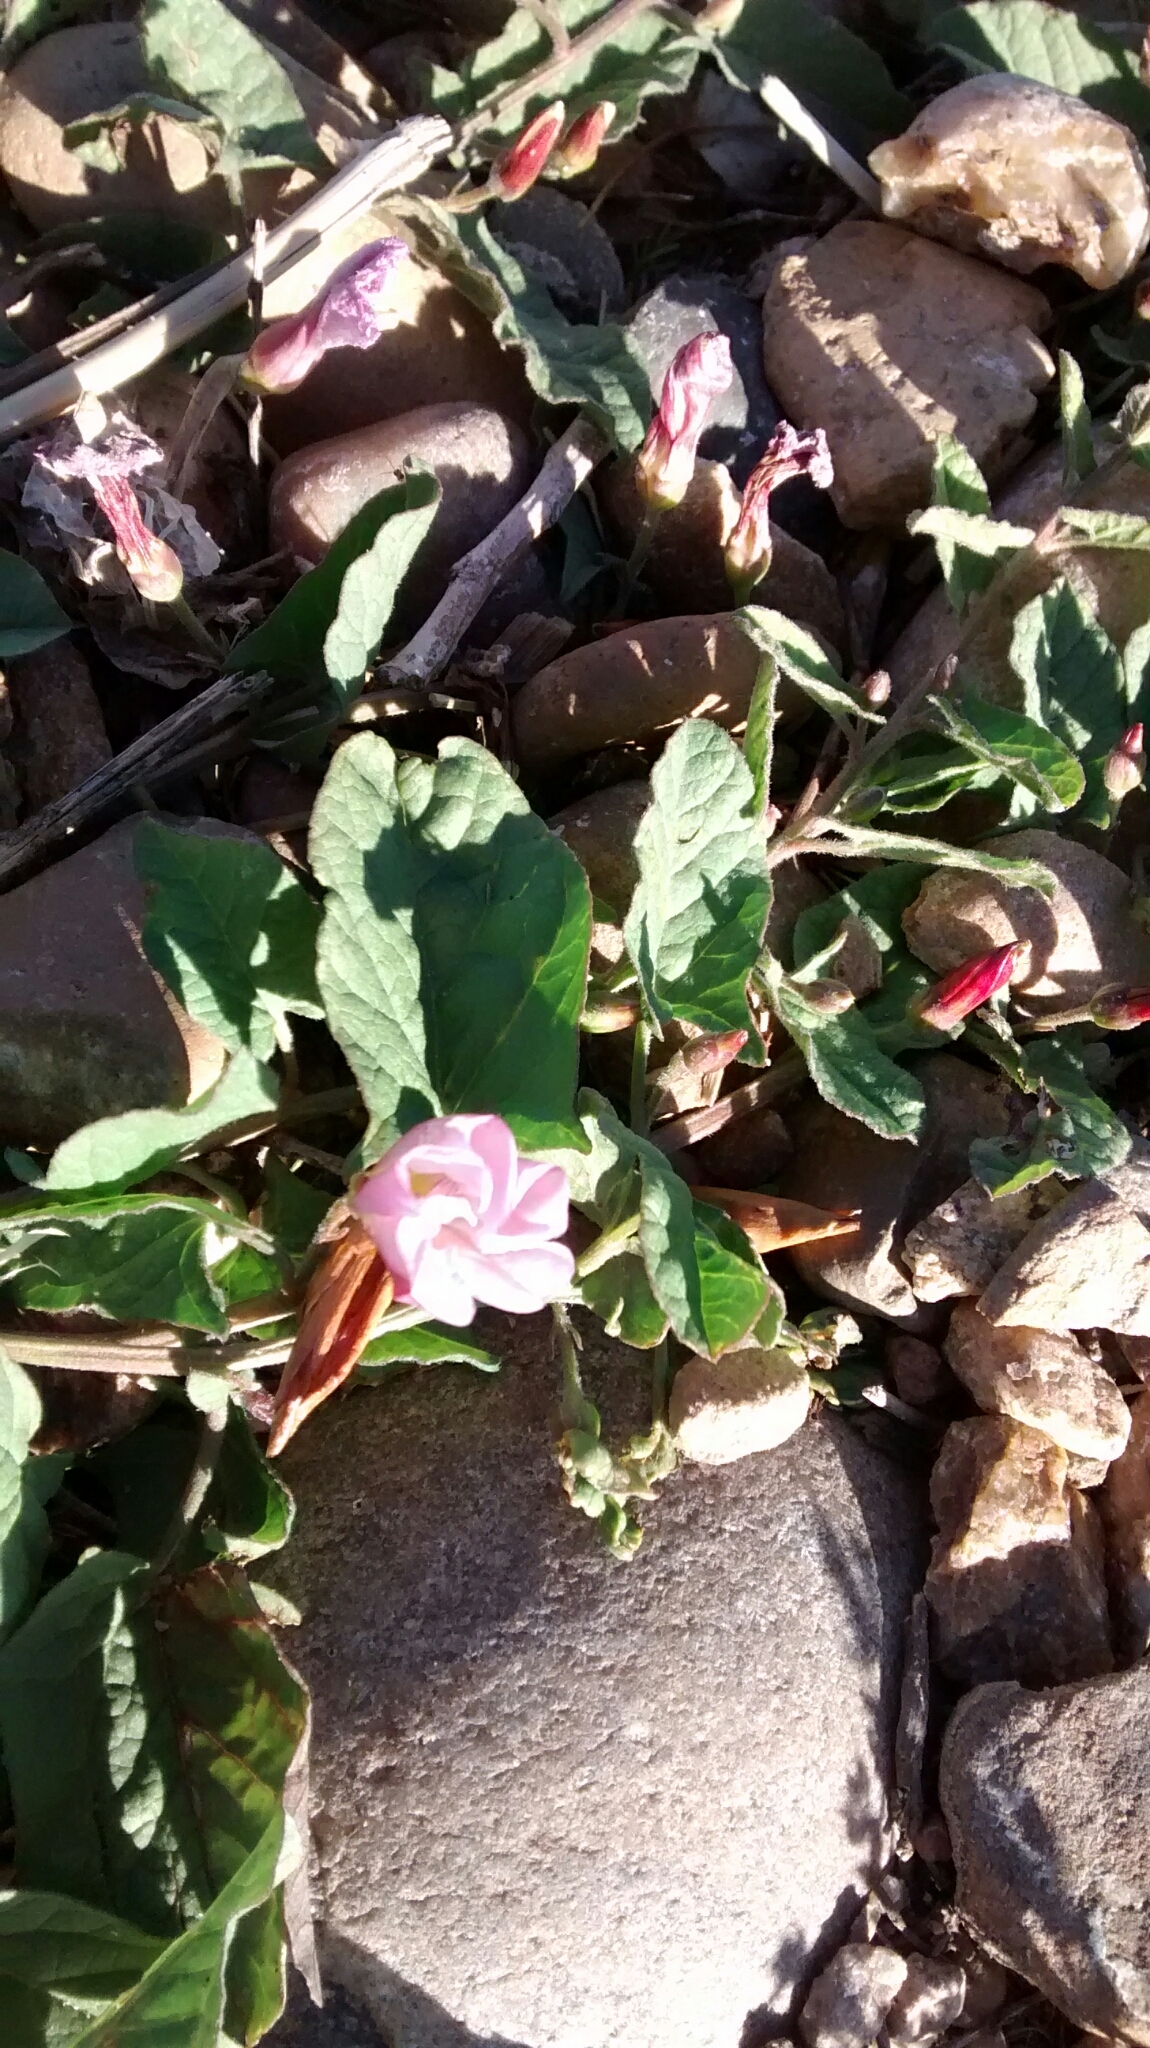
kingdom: Plantae
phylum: Tracheophyta
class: Magnoliopsida
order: Solanales
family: Convolvulaceae
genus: Convolvulus
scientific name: Convolvulus arvensis
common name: Field bindweed
